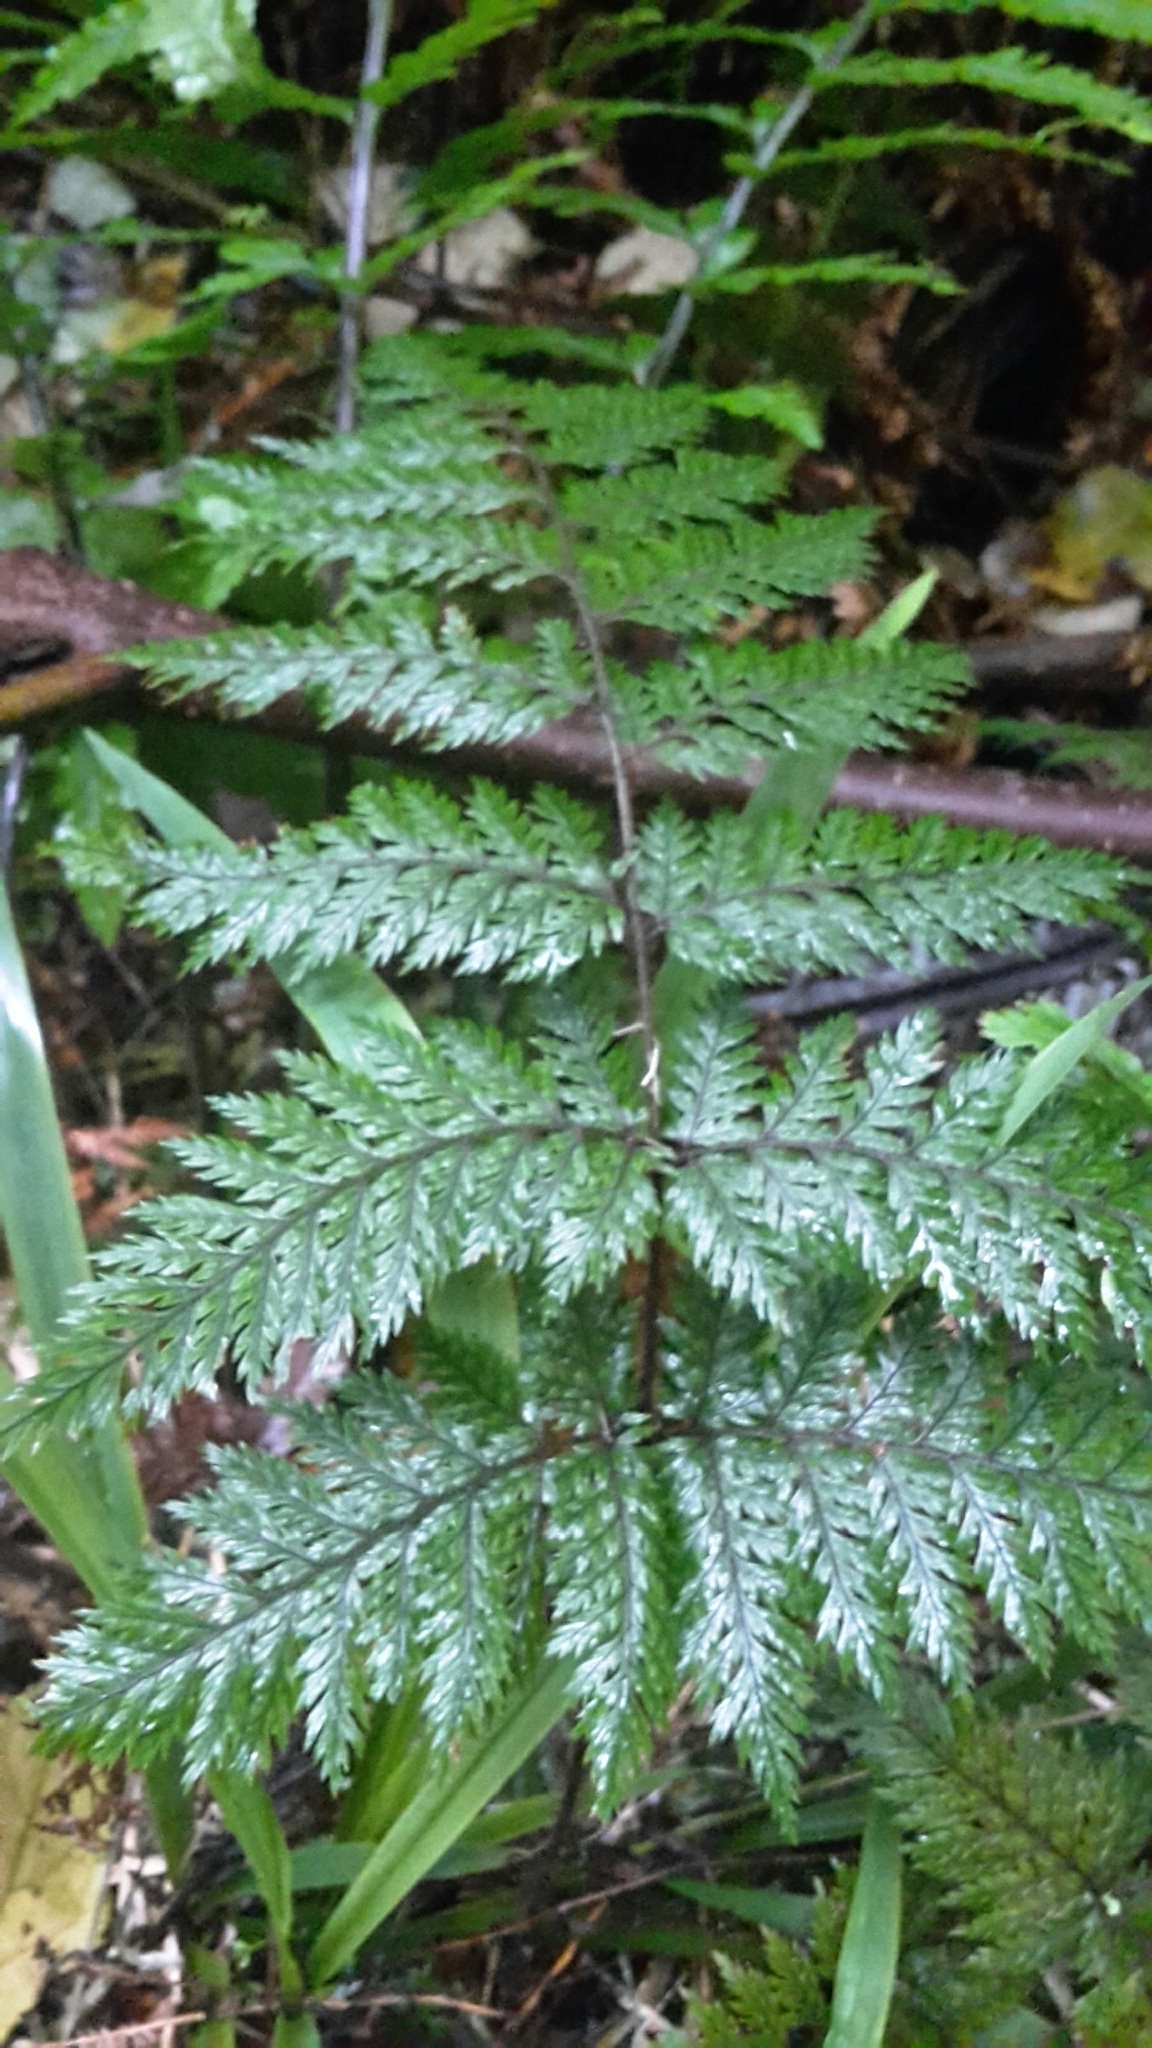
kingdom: Plantae
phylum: Tracheophyta
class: Polypodiopsida
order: Polypodiales
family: Dryopteridaceae
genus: Lastreopsis
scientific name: Lastreopsis hispida
